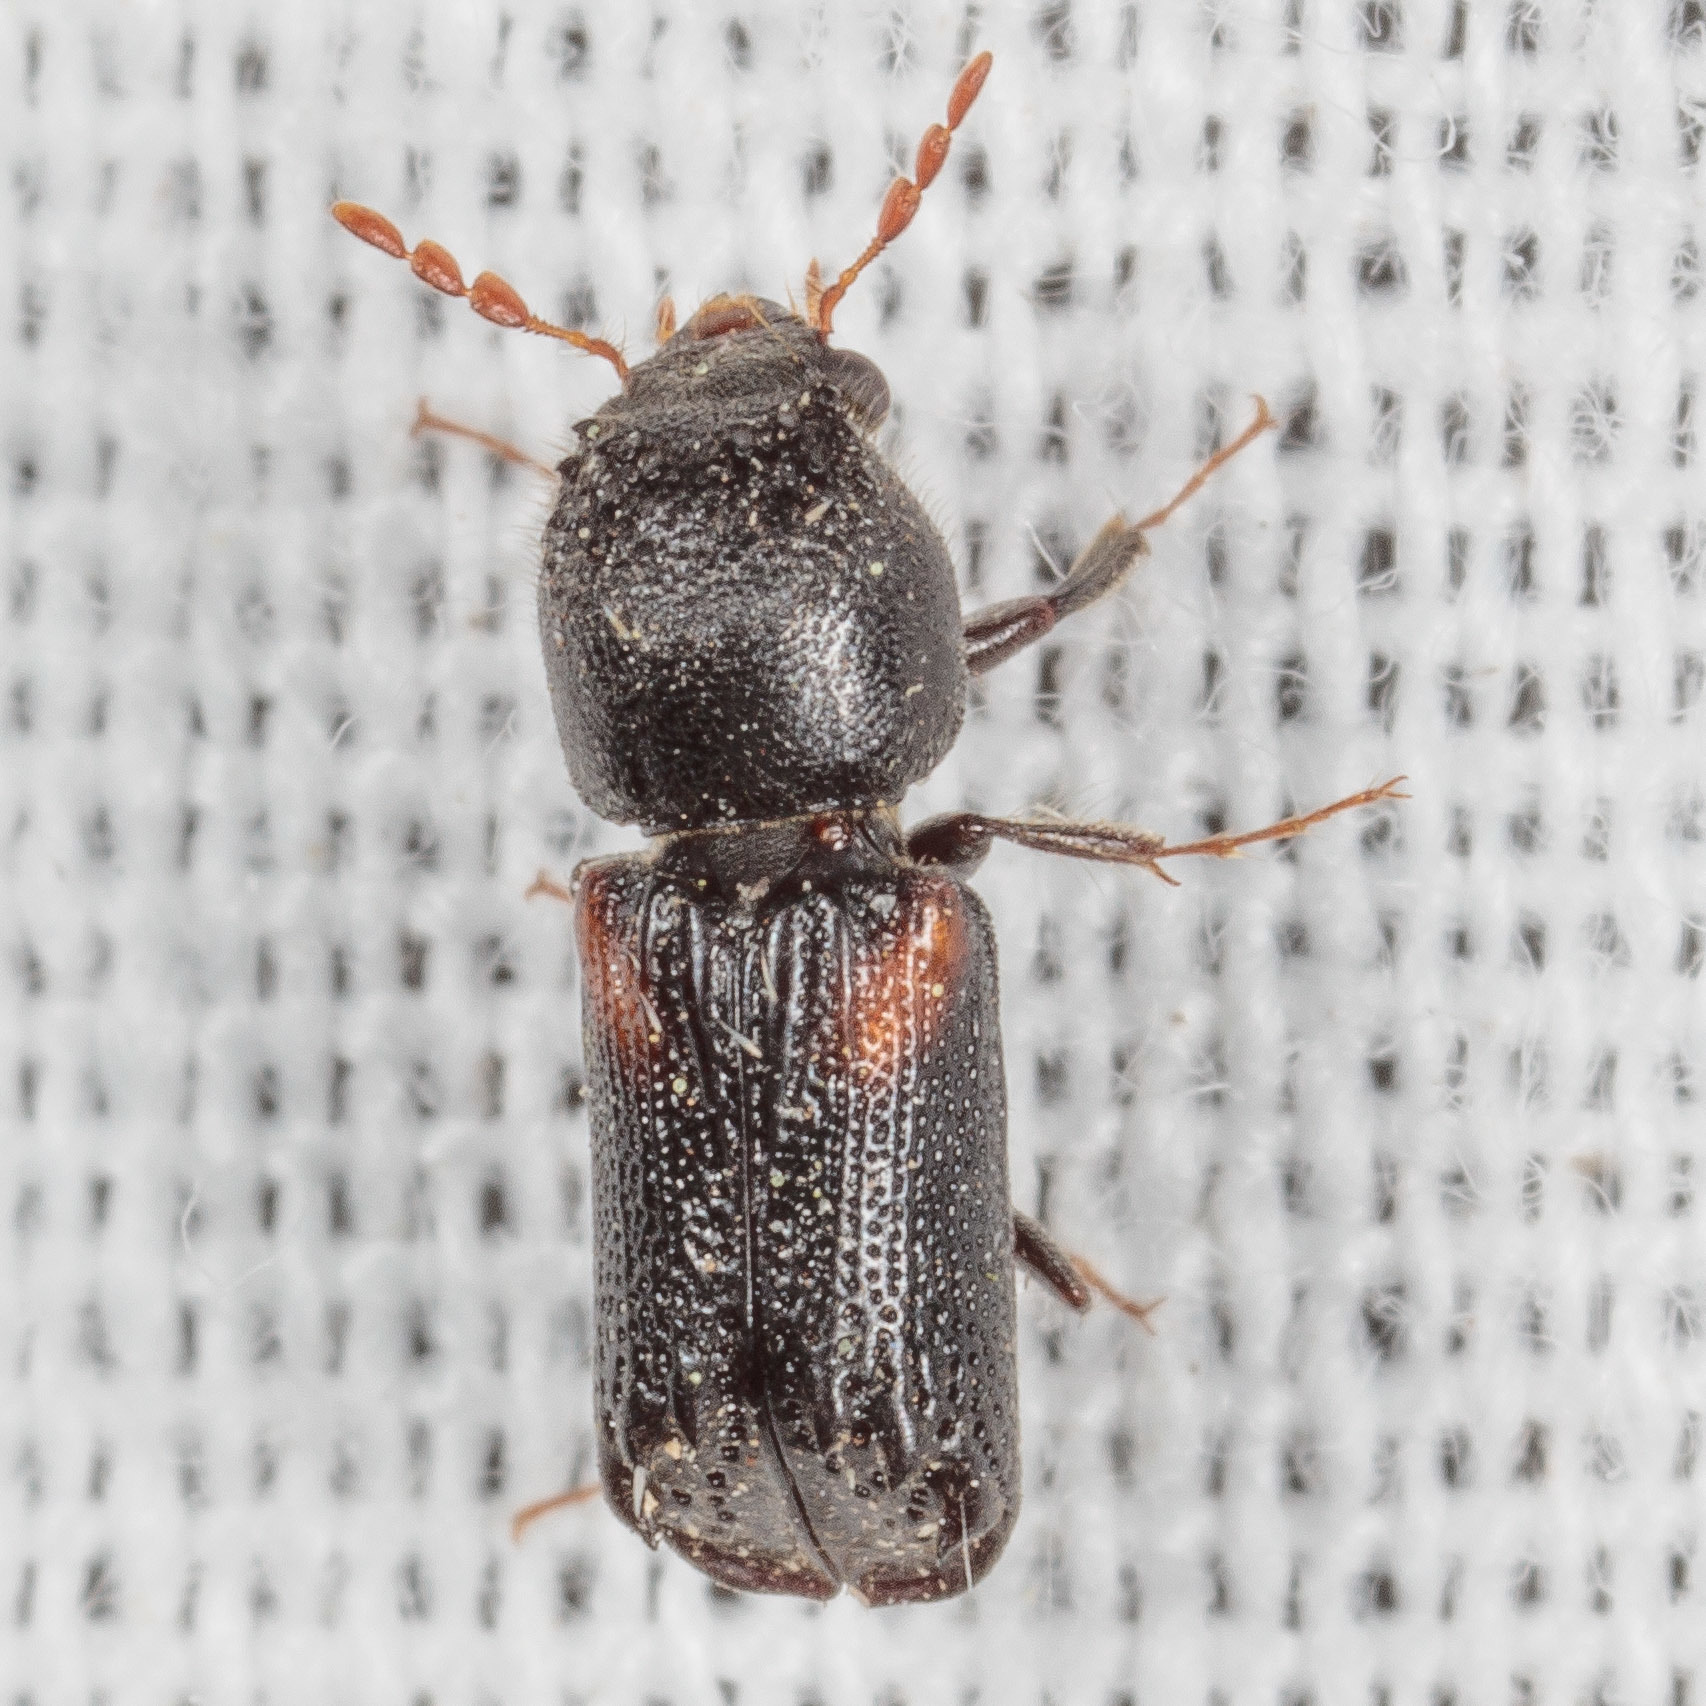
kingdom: Animalia
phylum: Arthropoda
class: Insecta
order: Coleoptera
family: Bostrichidae
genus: Xylobiops
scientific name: Xylobiops basilaris
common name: Red-shouldered bostrichid
